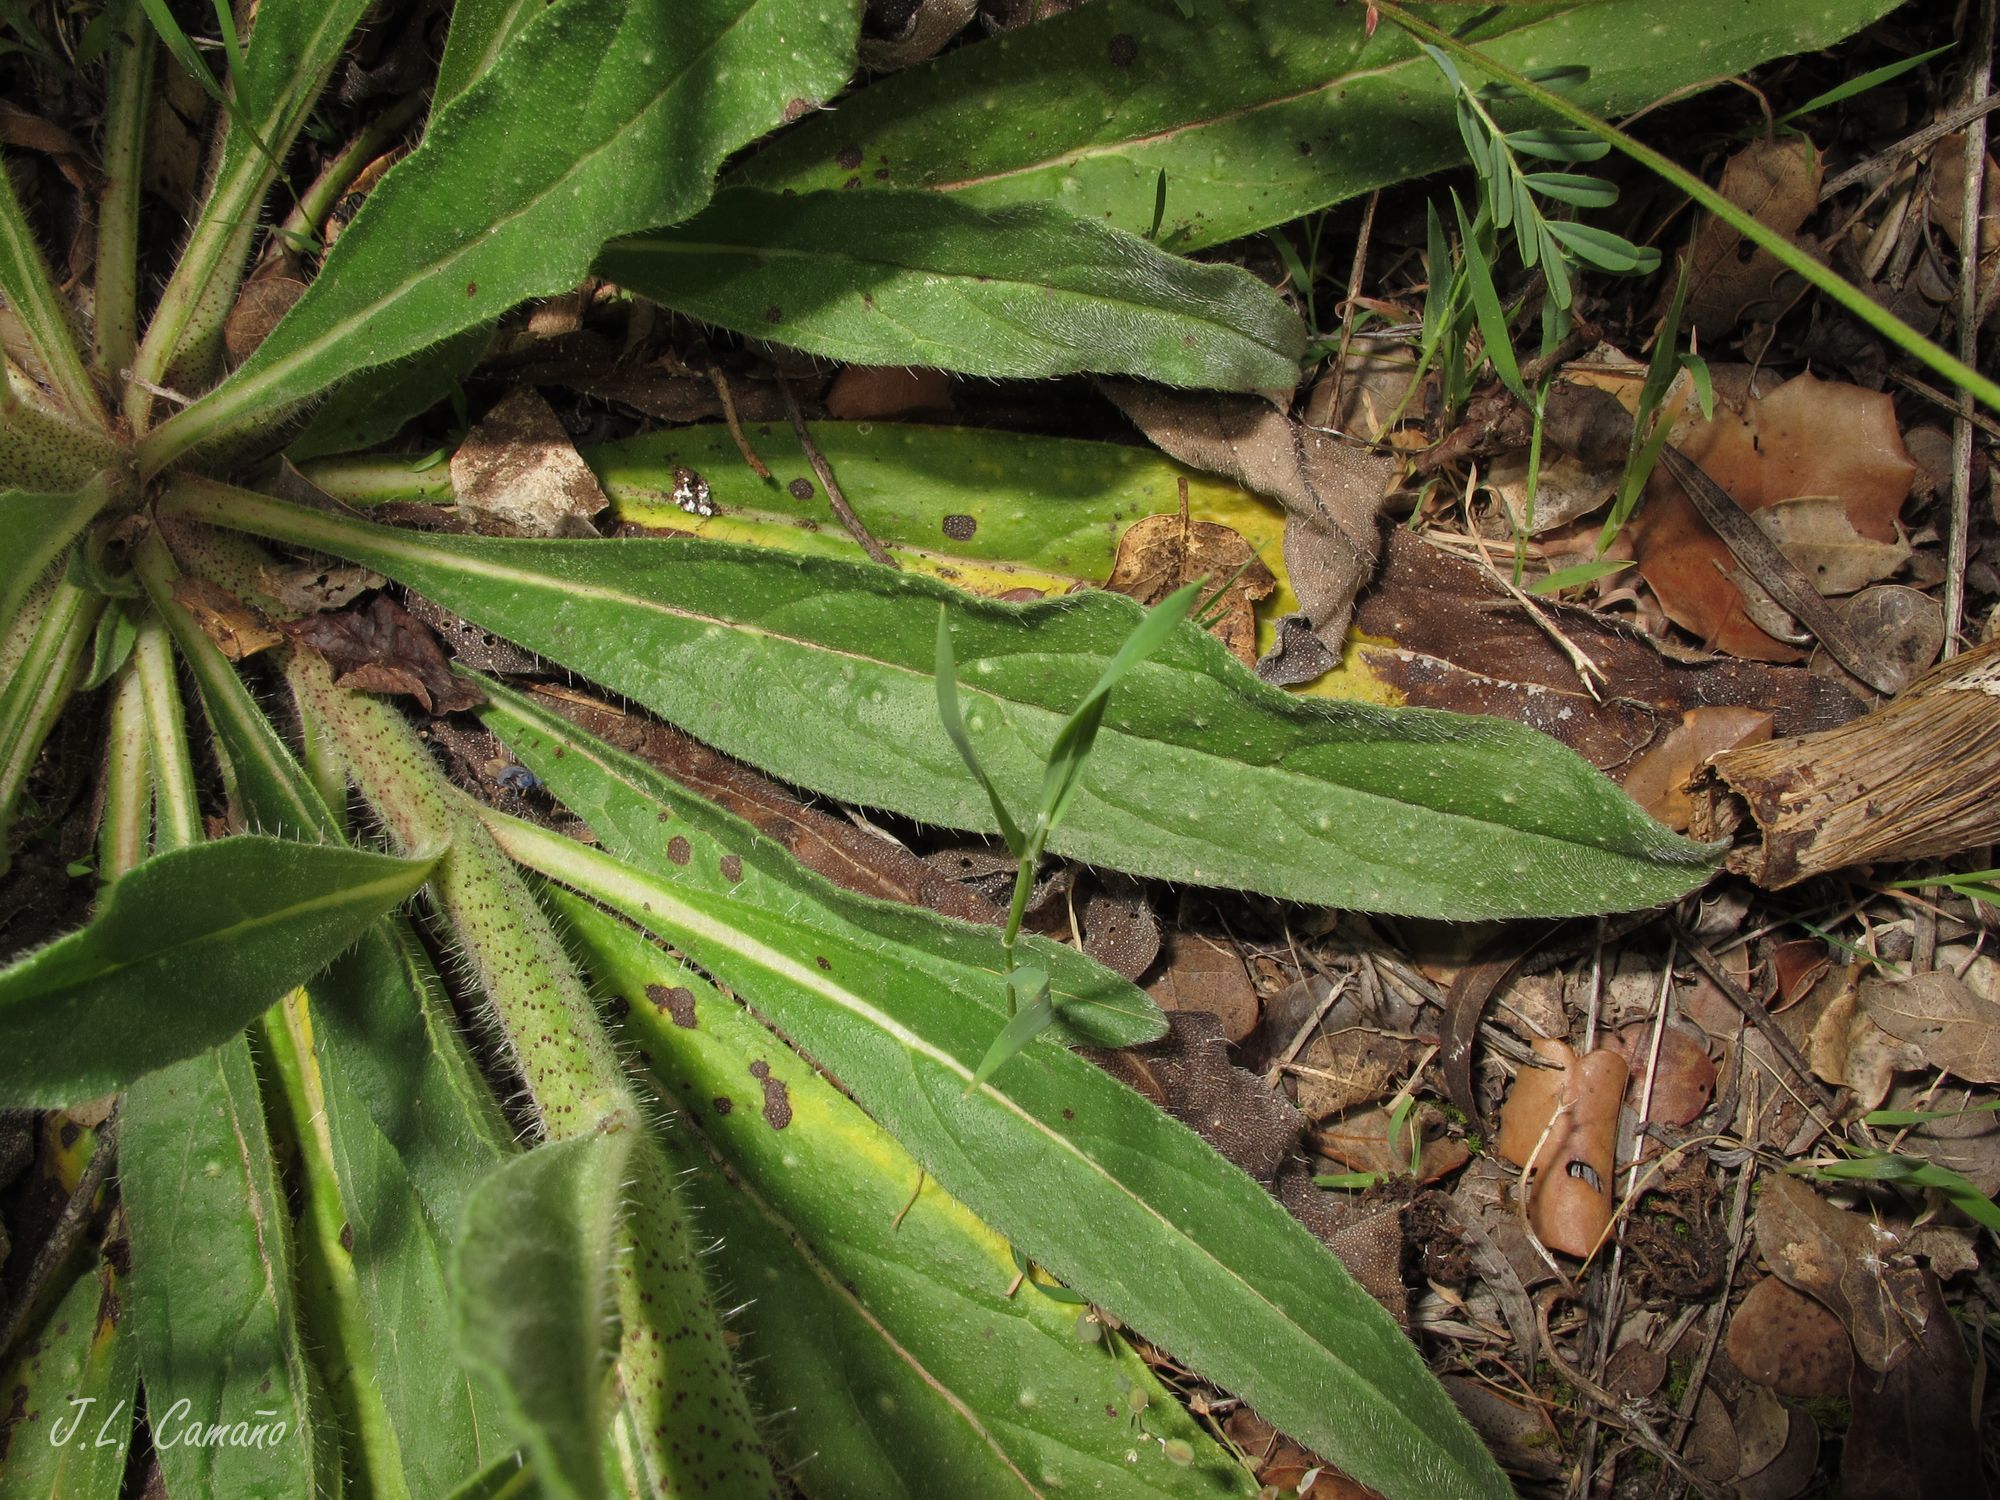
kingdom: Plantae
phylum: Tracheophyta
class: Magnoliopsida
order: Boraginales
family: Boraginaceae
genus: Echium
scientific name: Echium vulgare
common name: Common viper's bugloss
